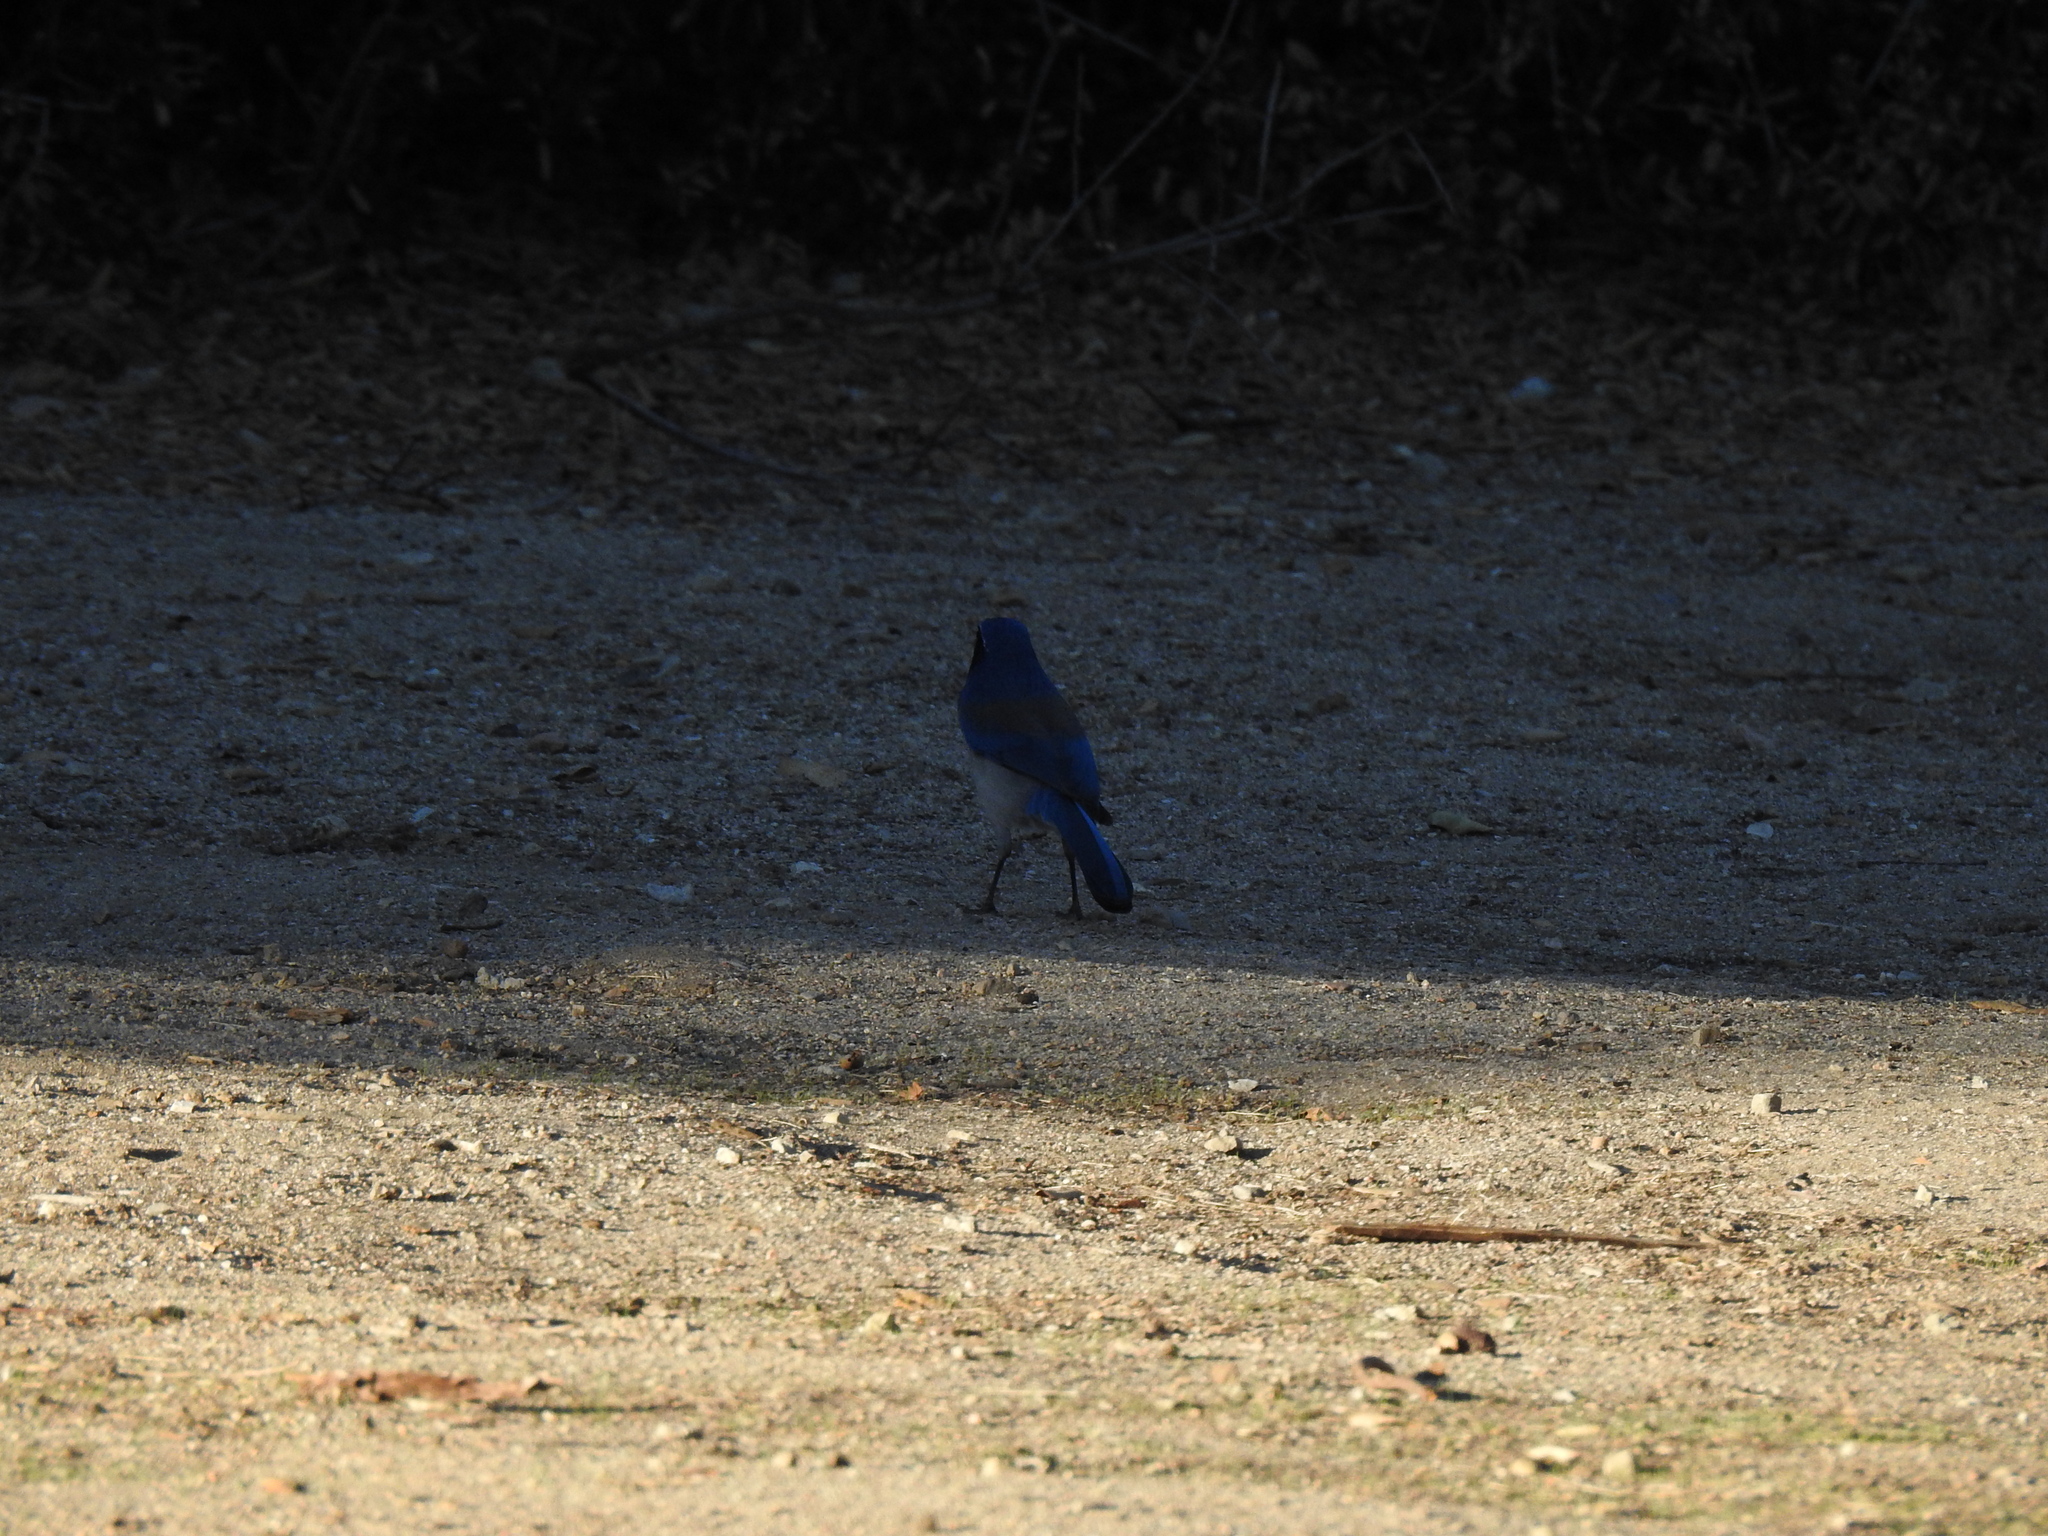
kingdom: Animalia
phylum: Chordata
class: Aves
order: Passeriformes
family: Corvidae
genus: Aphelocoma
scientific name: Aphelocoma californica
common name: California scrub-jay
